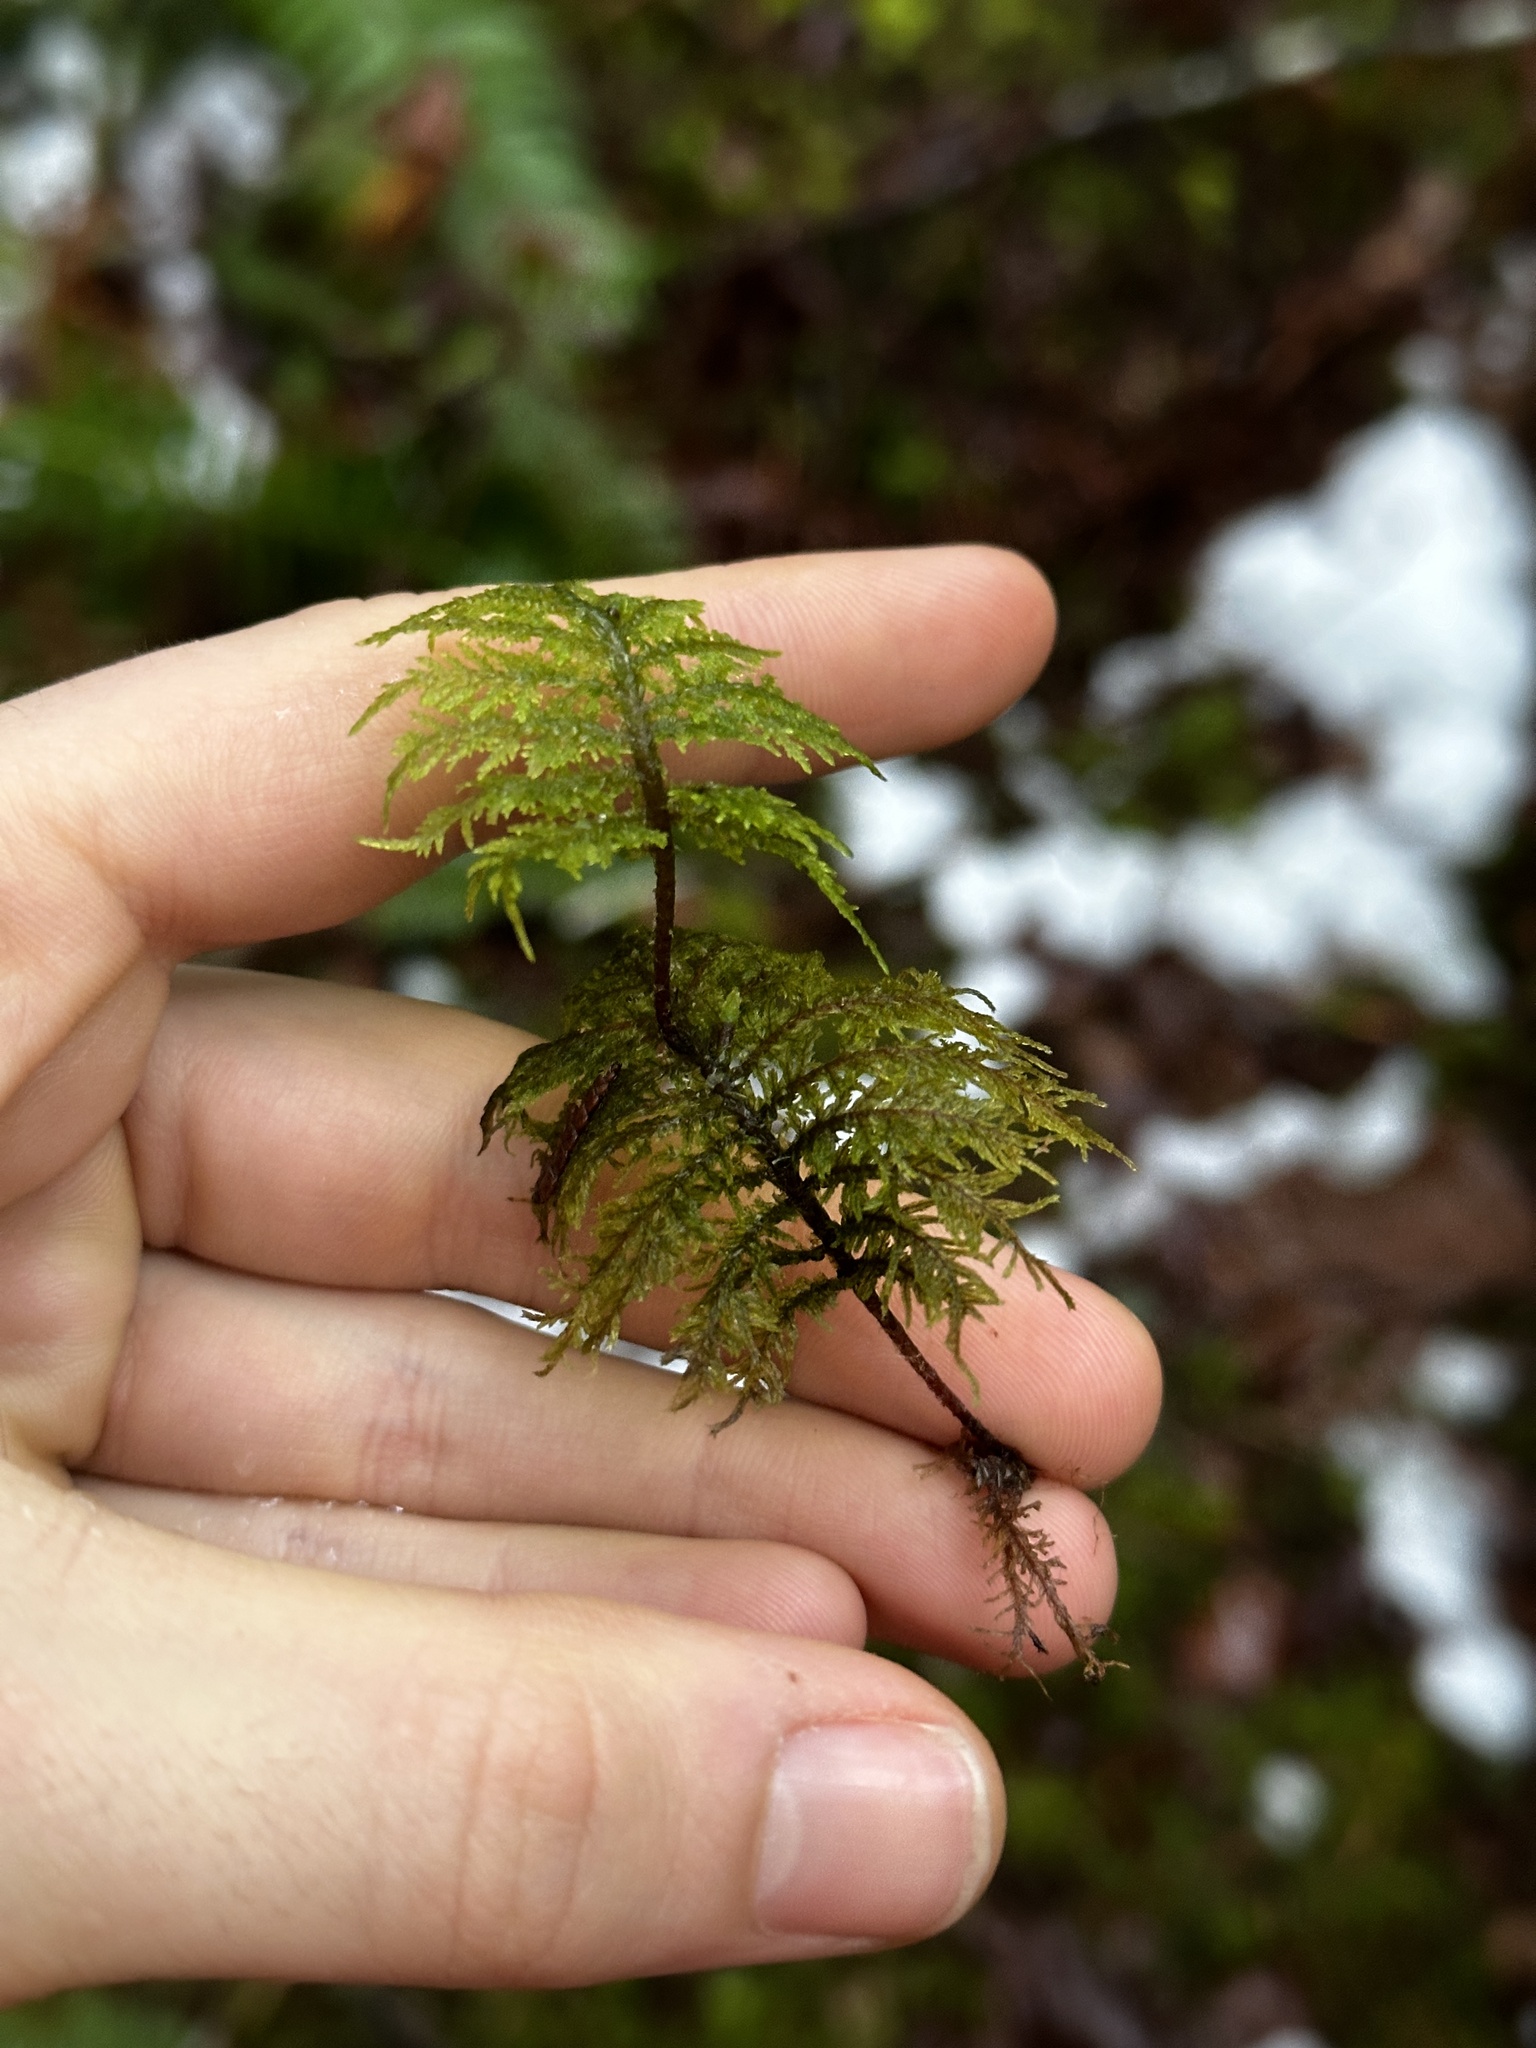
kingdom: Plantae
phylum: Bryophyta
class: Bryopsida
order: Hypnales
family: Hylocomiaceae
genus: Hylocomium
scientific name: Hylocomium splendens
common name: Stairstep moss
